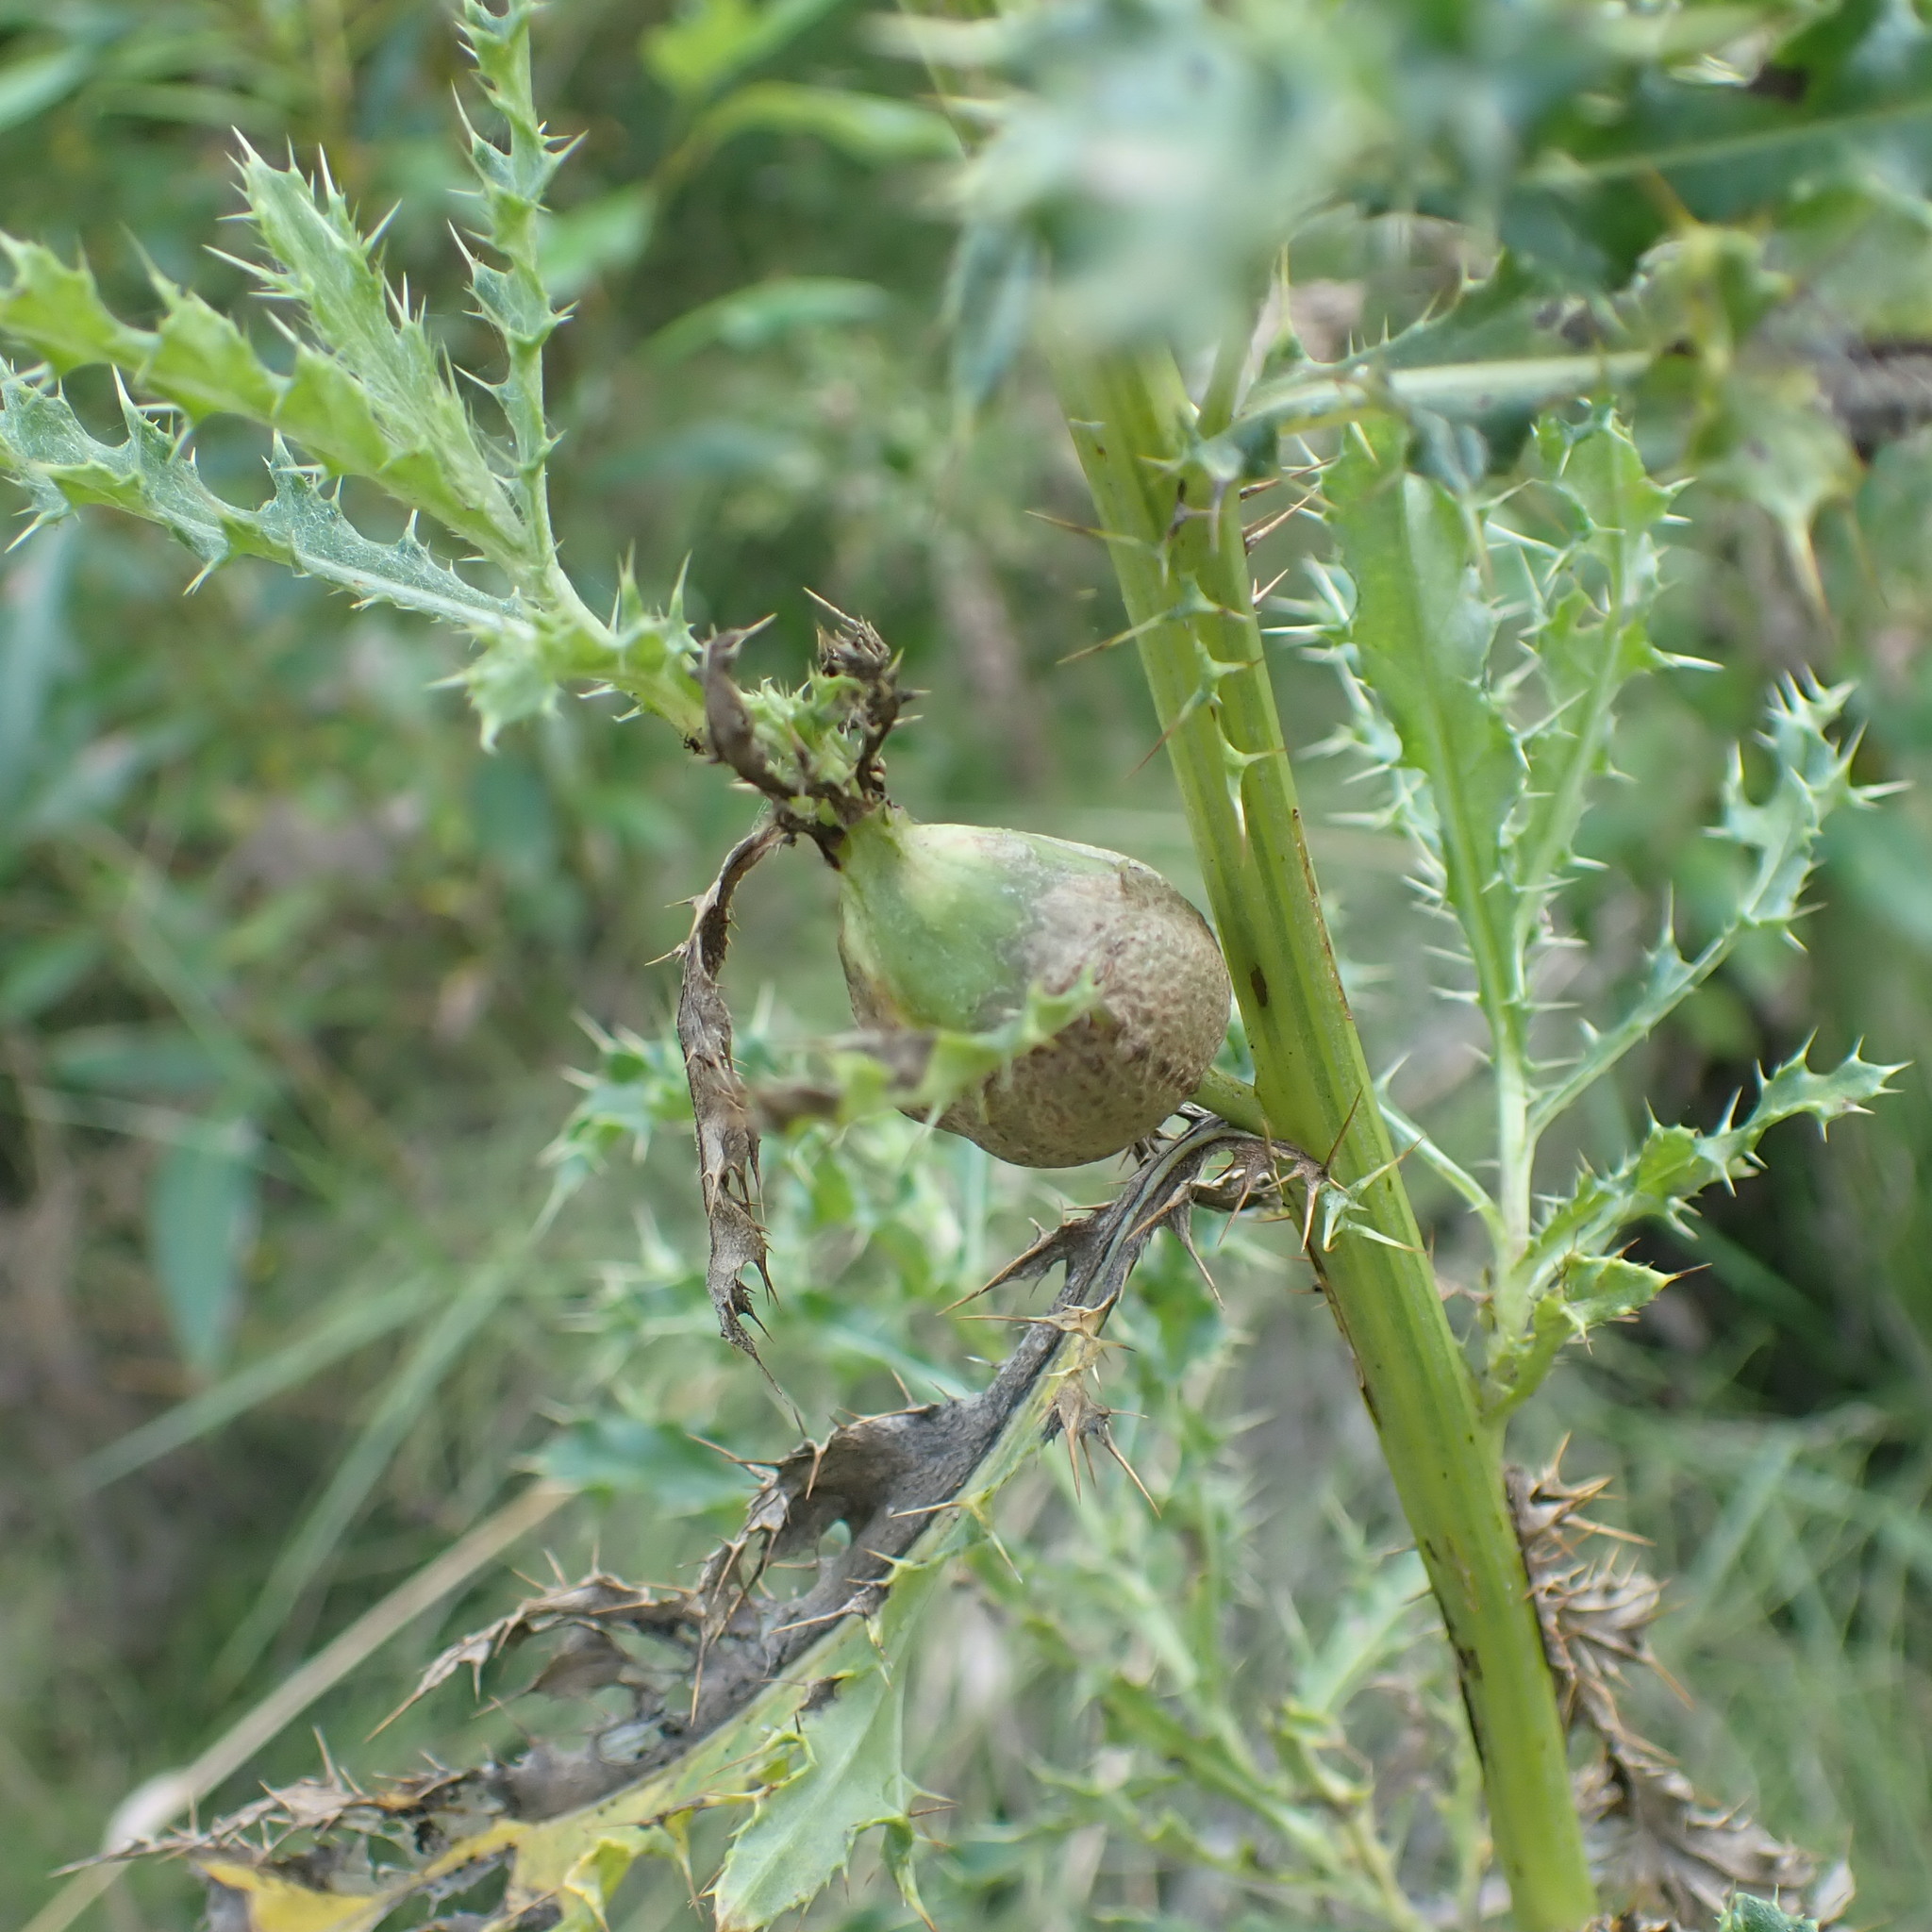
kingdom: Animalia
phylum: Arthropoda
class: Insecta
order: Diptera
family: Tephritidae
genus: Urophora
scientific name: Urophora cardui
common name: Fruit fly
